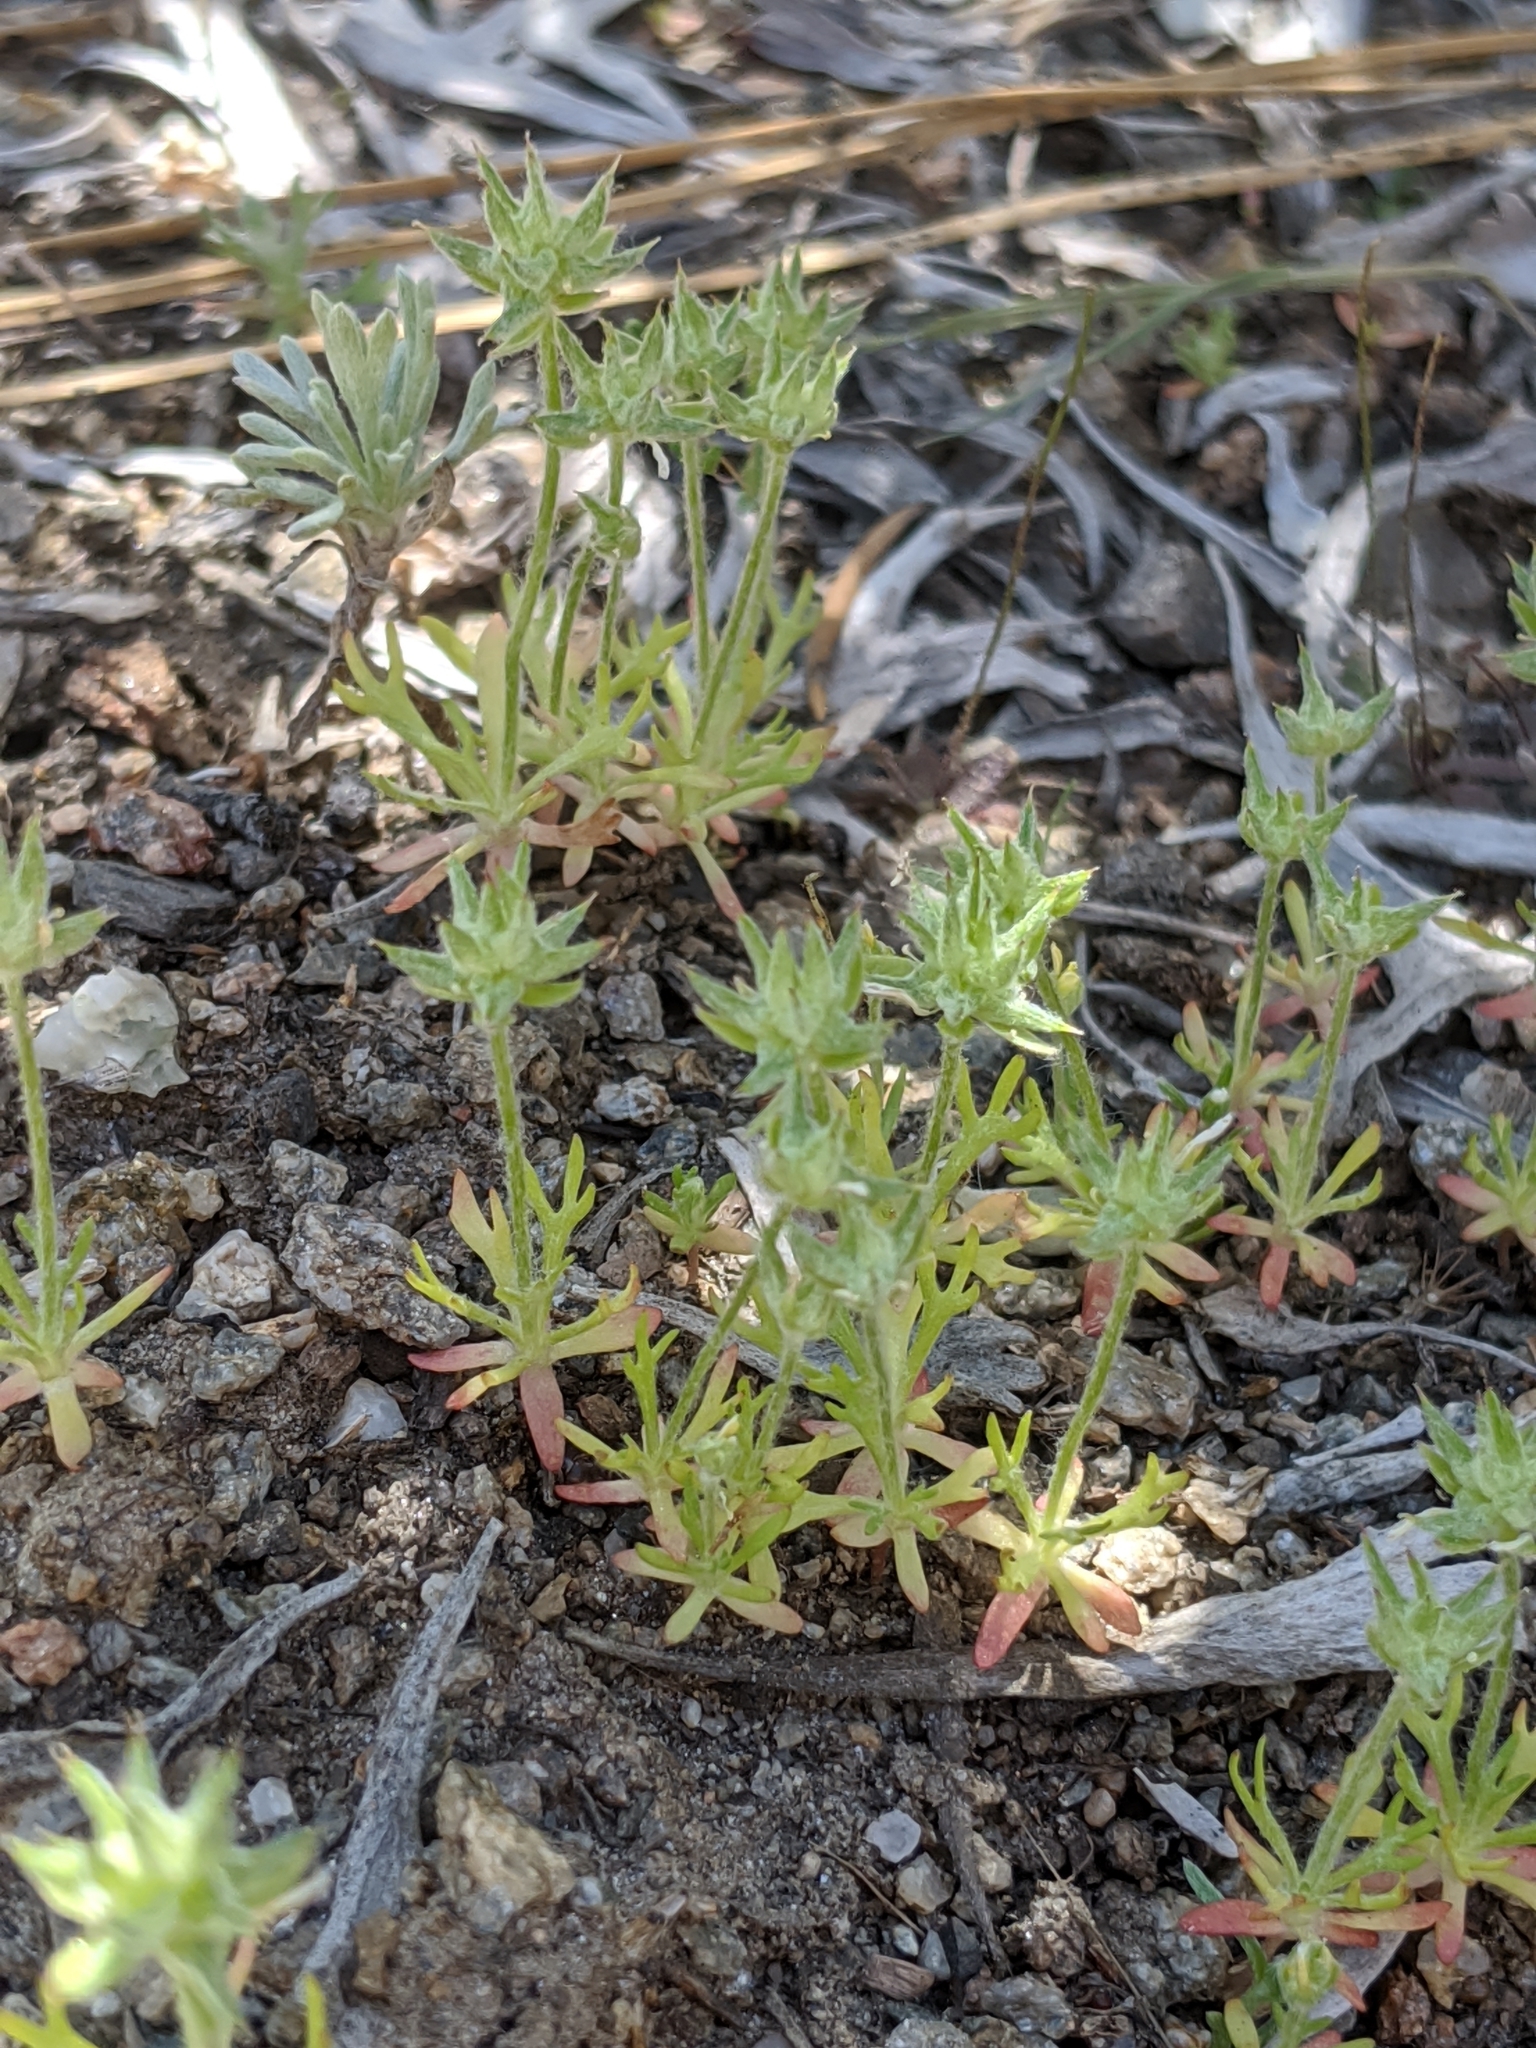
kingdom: Plantae
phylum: Tracheophyta
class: Magnoliopsida
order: Ranunculales
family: Ranunculaceae
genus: Ceratocephala
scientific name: Ceratocephala orthoceras
